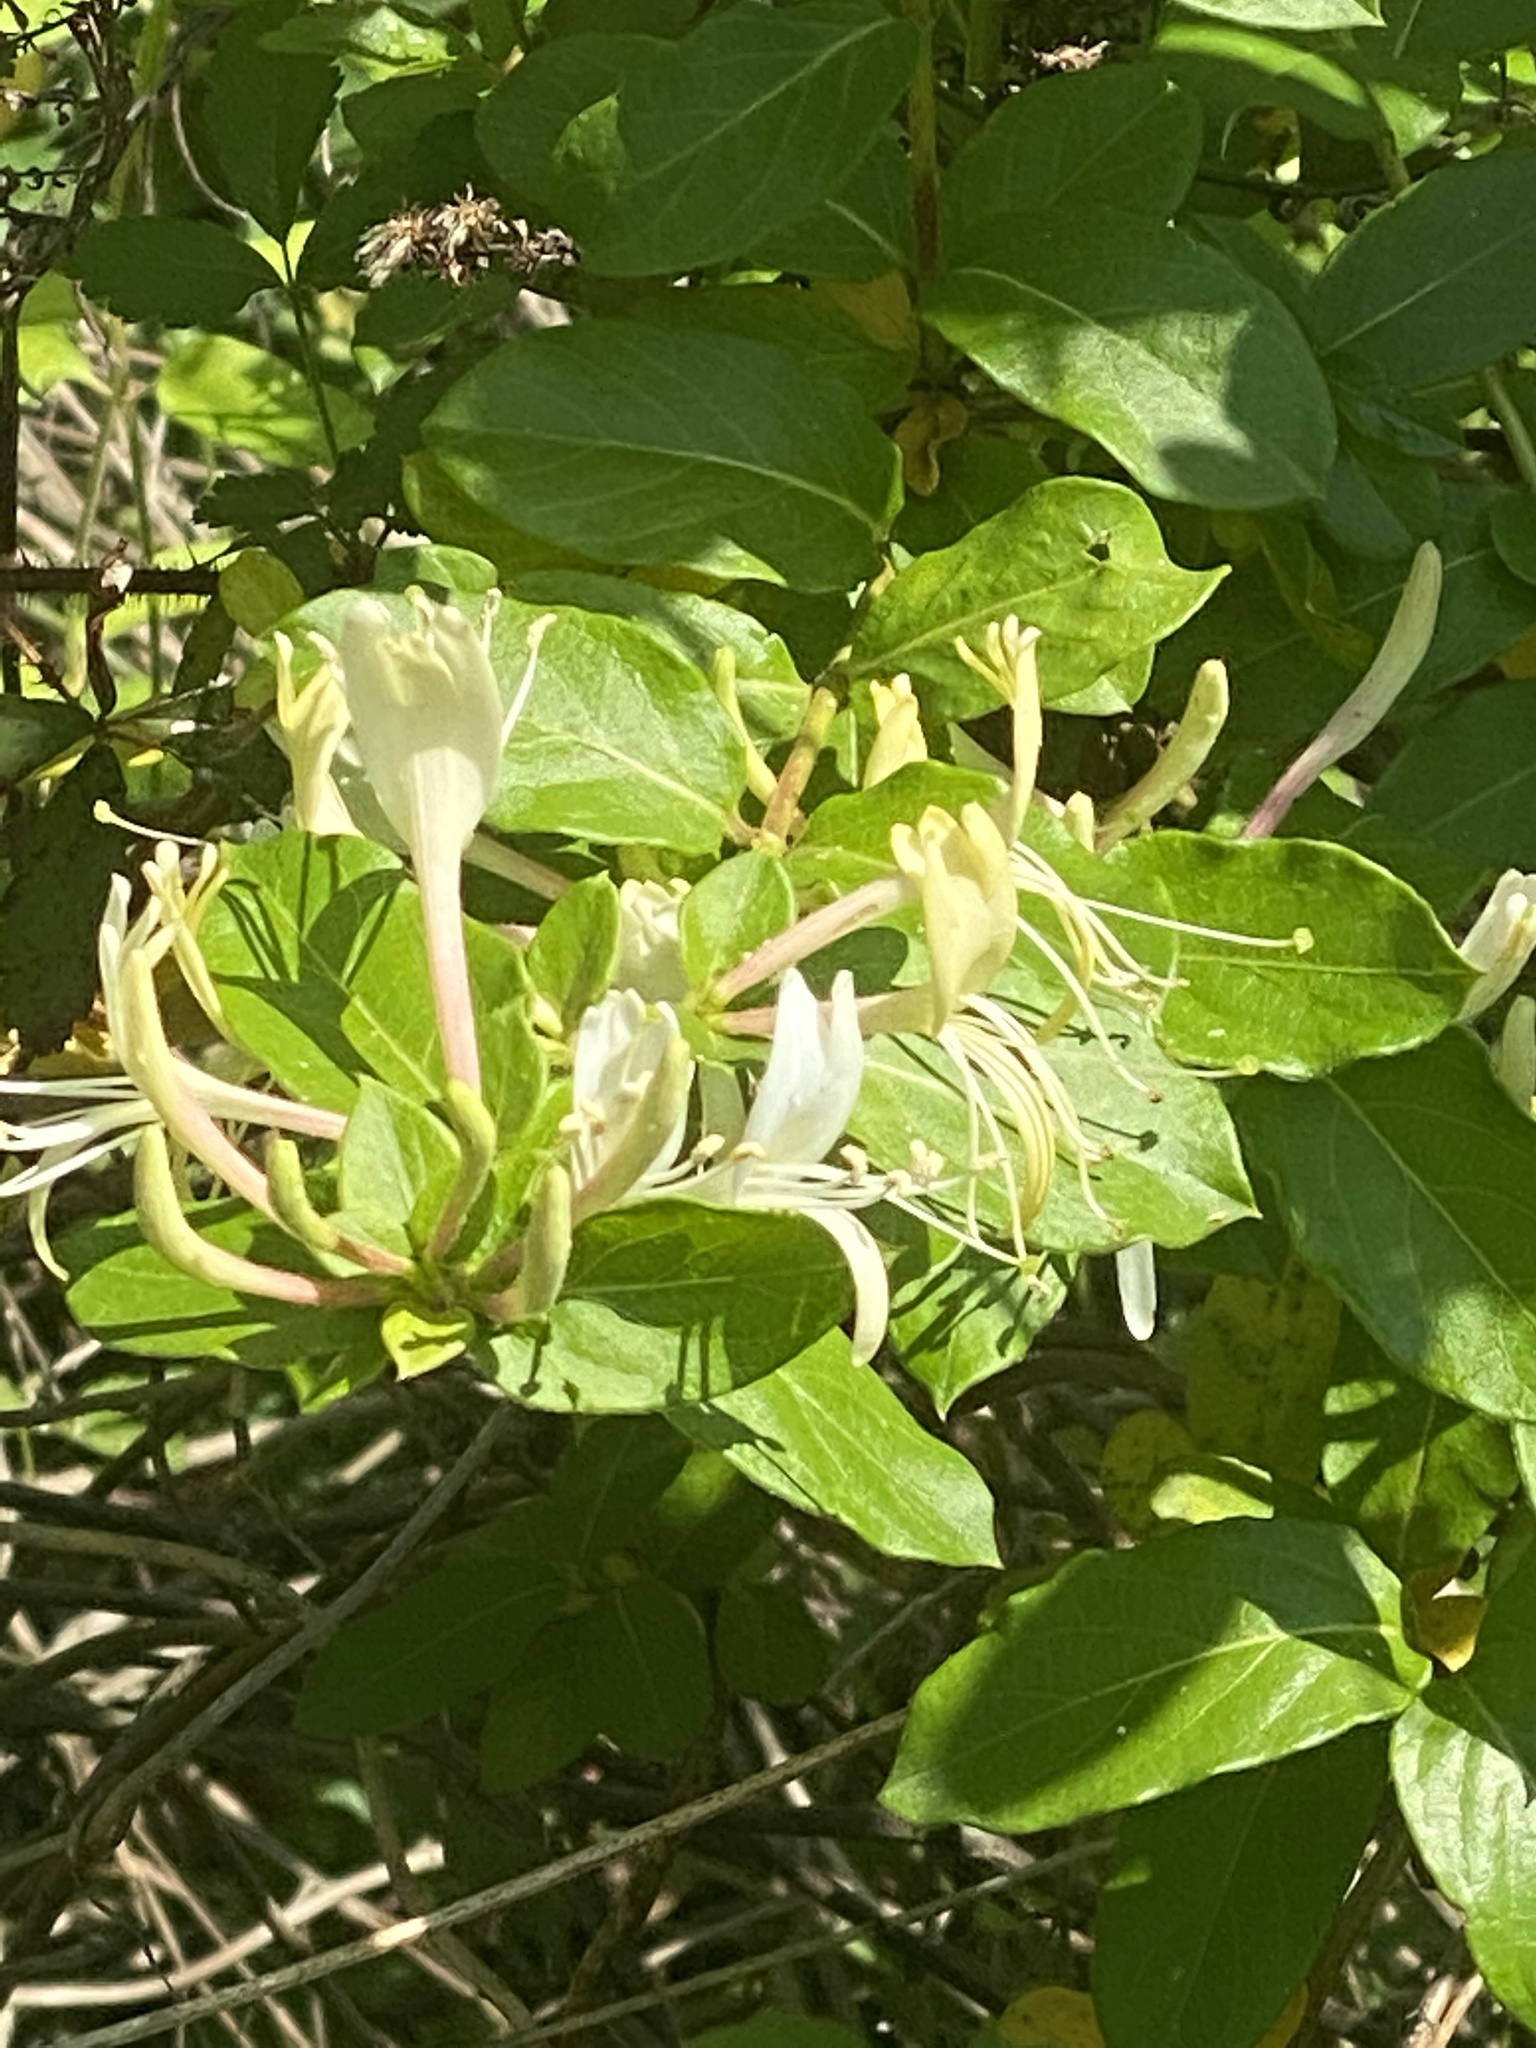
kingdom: Plantae
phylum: Tracheophyta
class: Magnoliopsida
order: Dipsacales
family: Caprifoliaceae
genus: Lonicera
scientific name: Lonicera japonica
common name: Japanese honeysuckle
